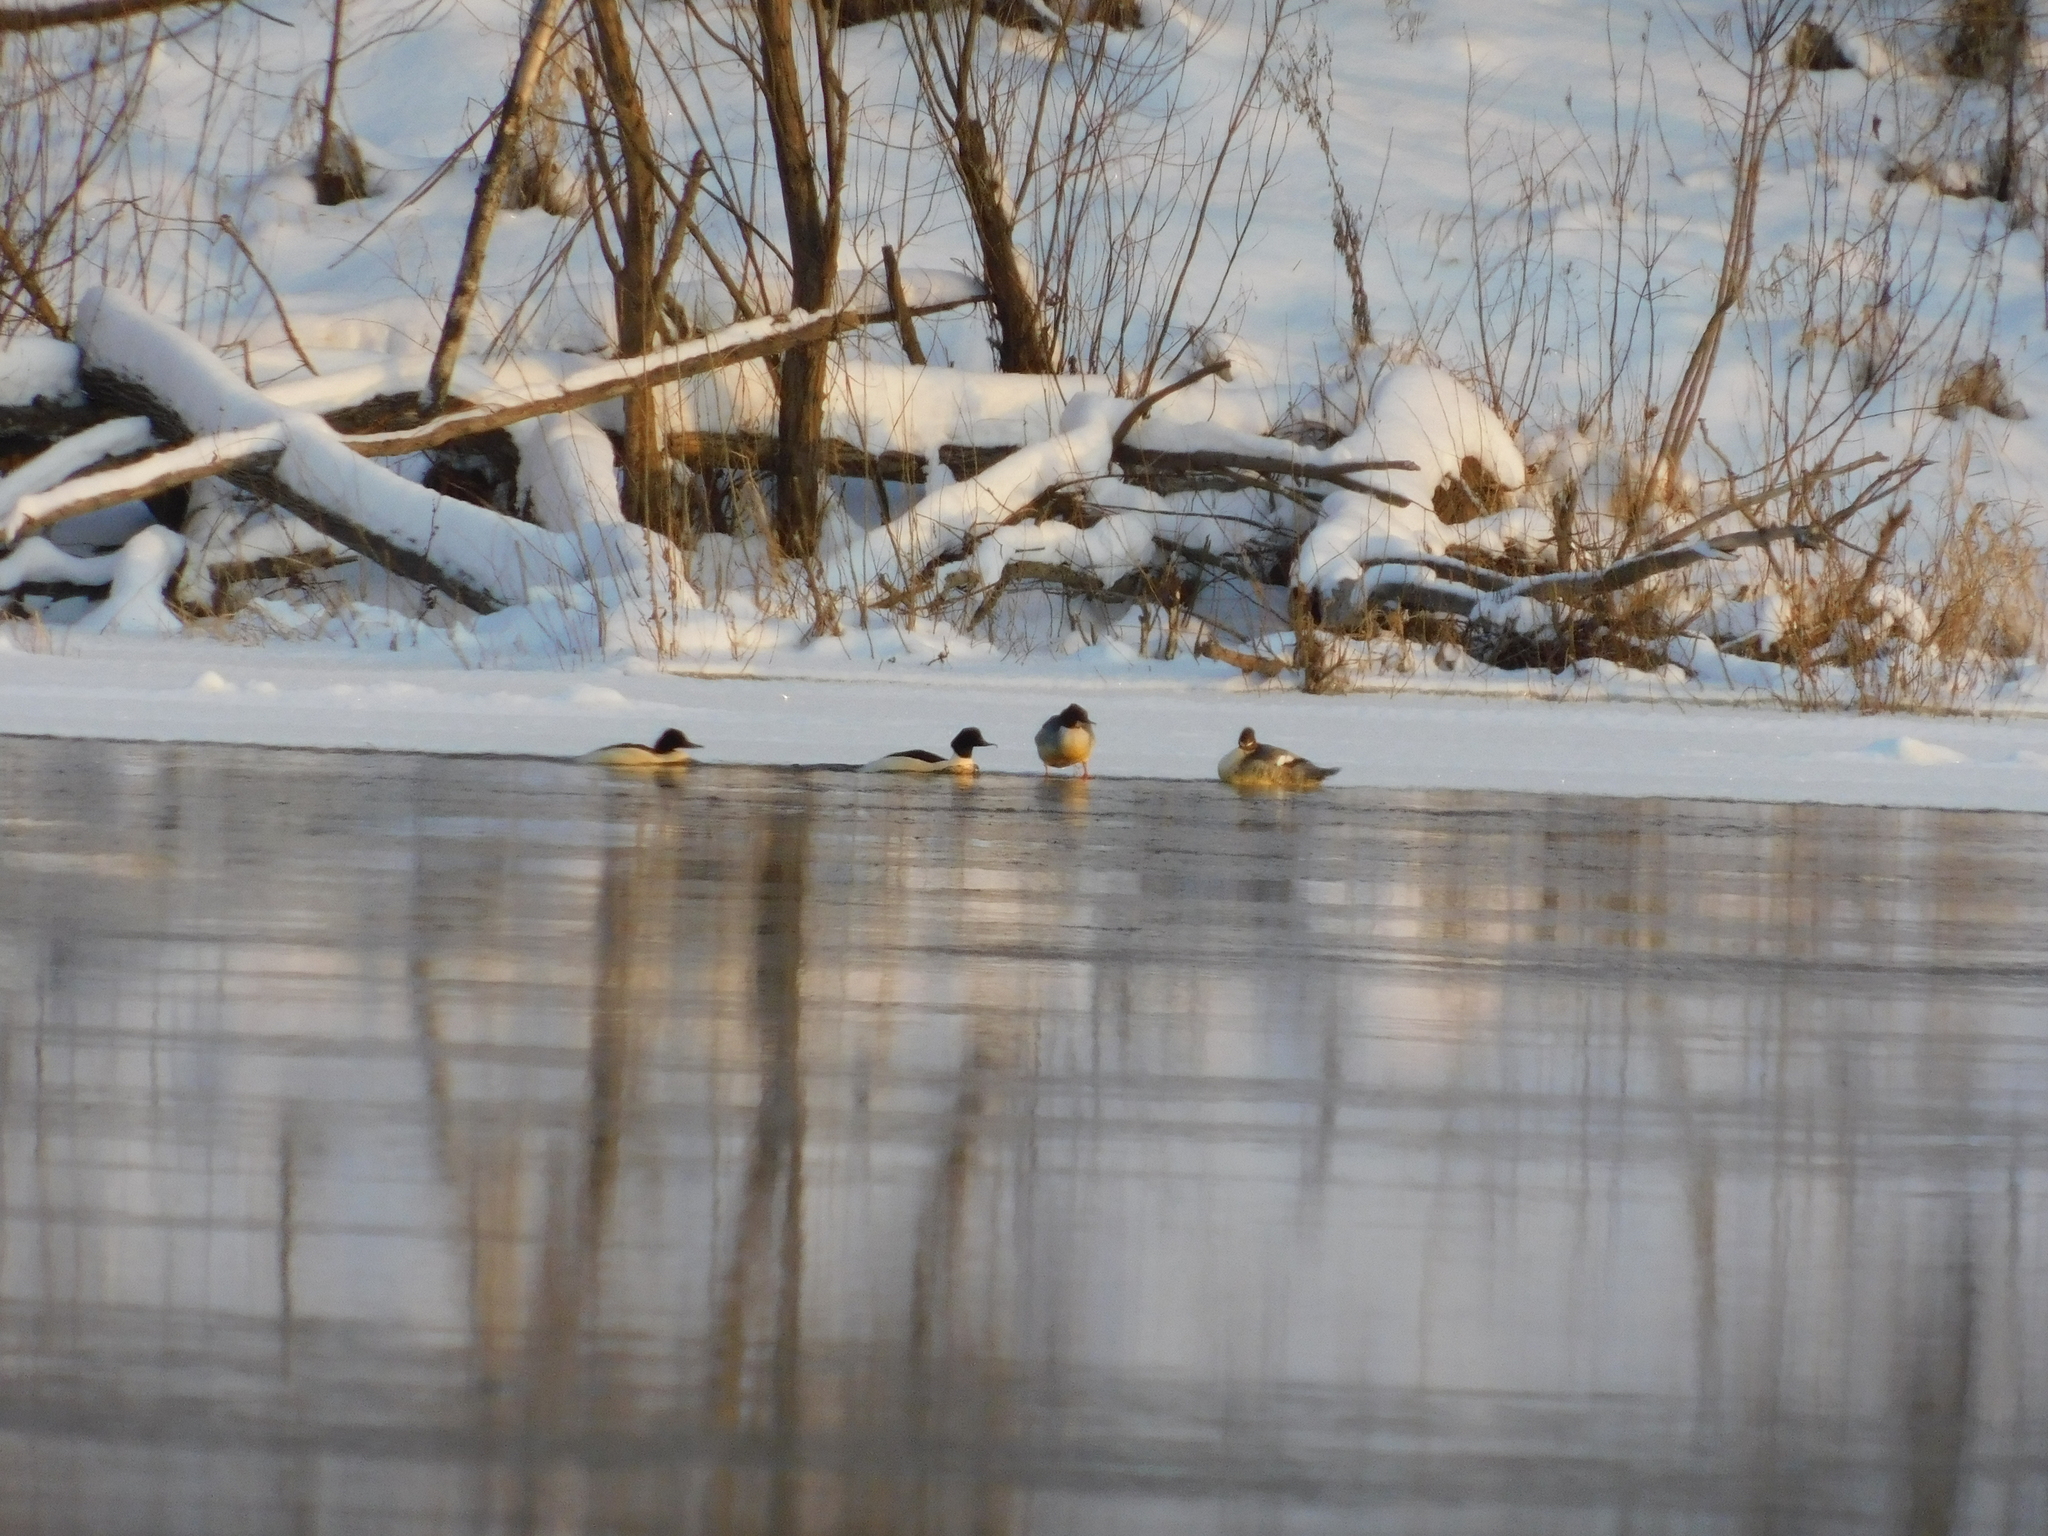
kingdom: Animalia
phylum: Chordata
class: Aves
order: Anseriformes
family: Anatidae
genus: Mergus
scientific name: Mergus merganser
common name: Common merganser
